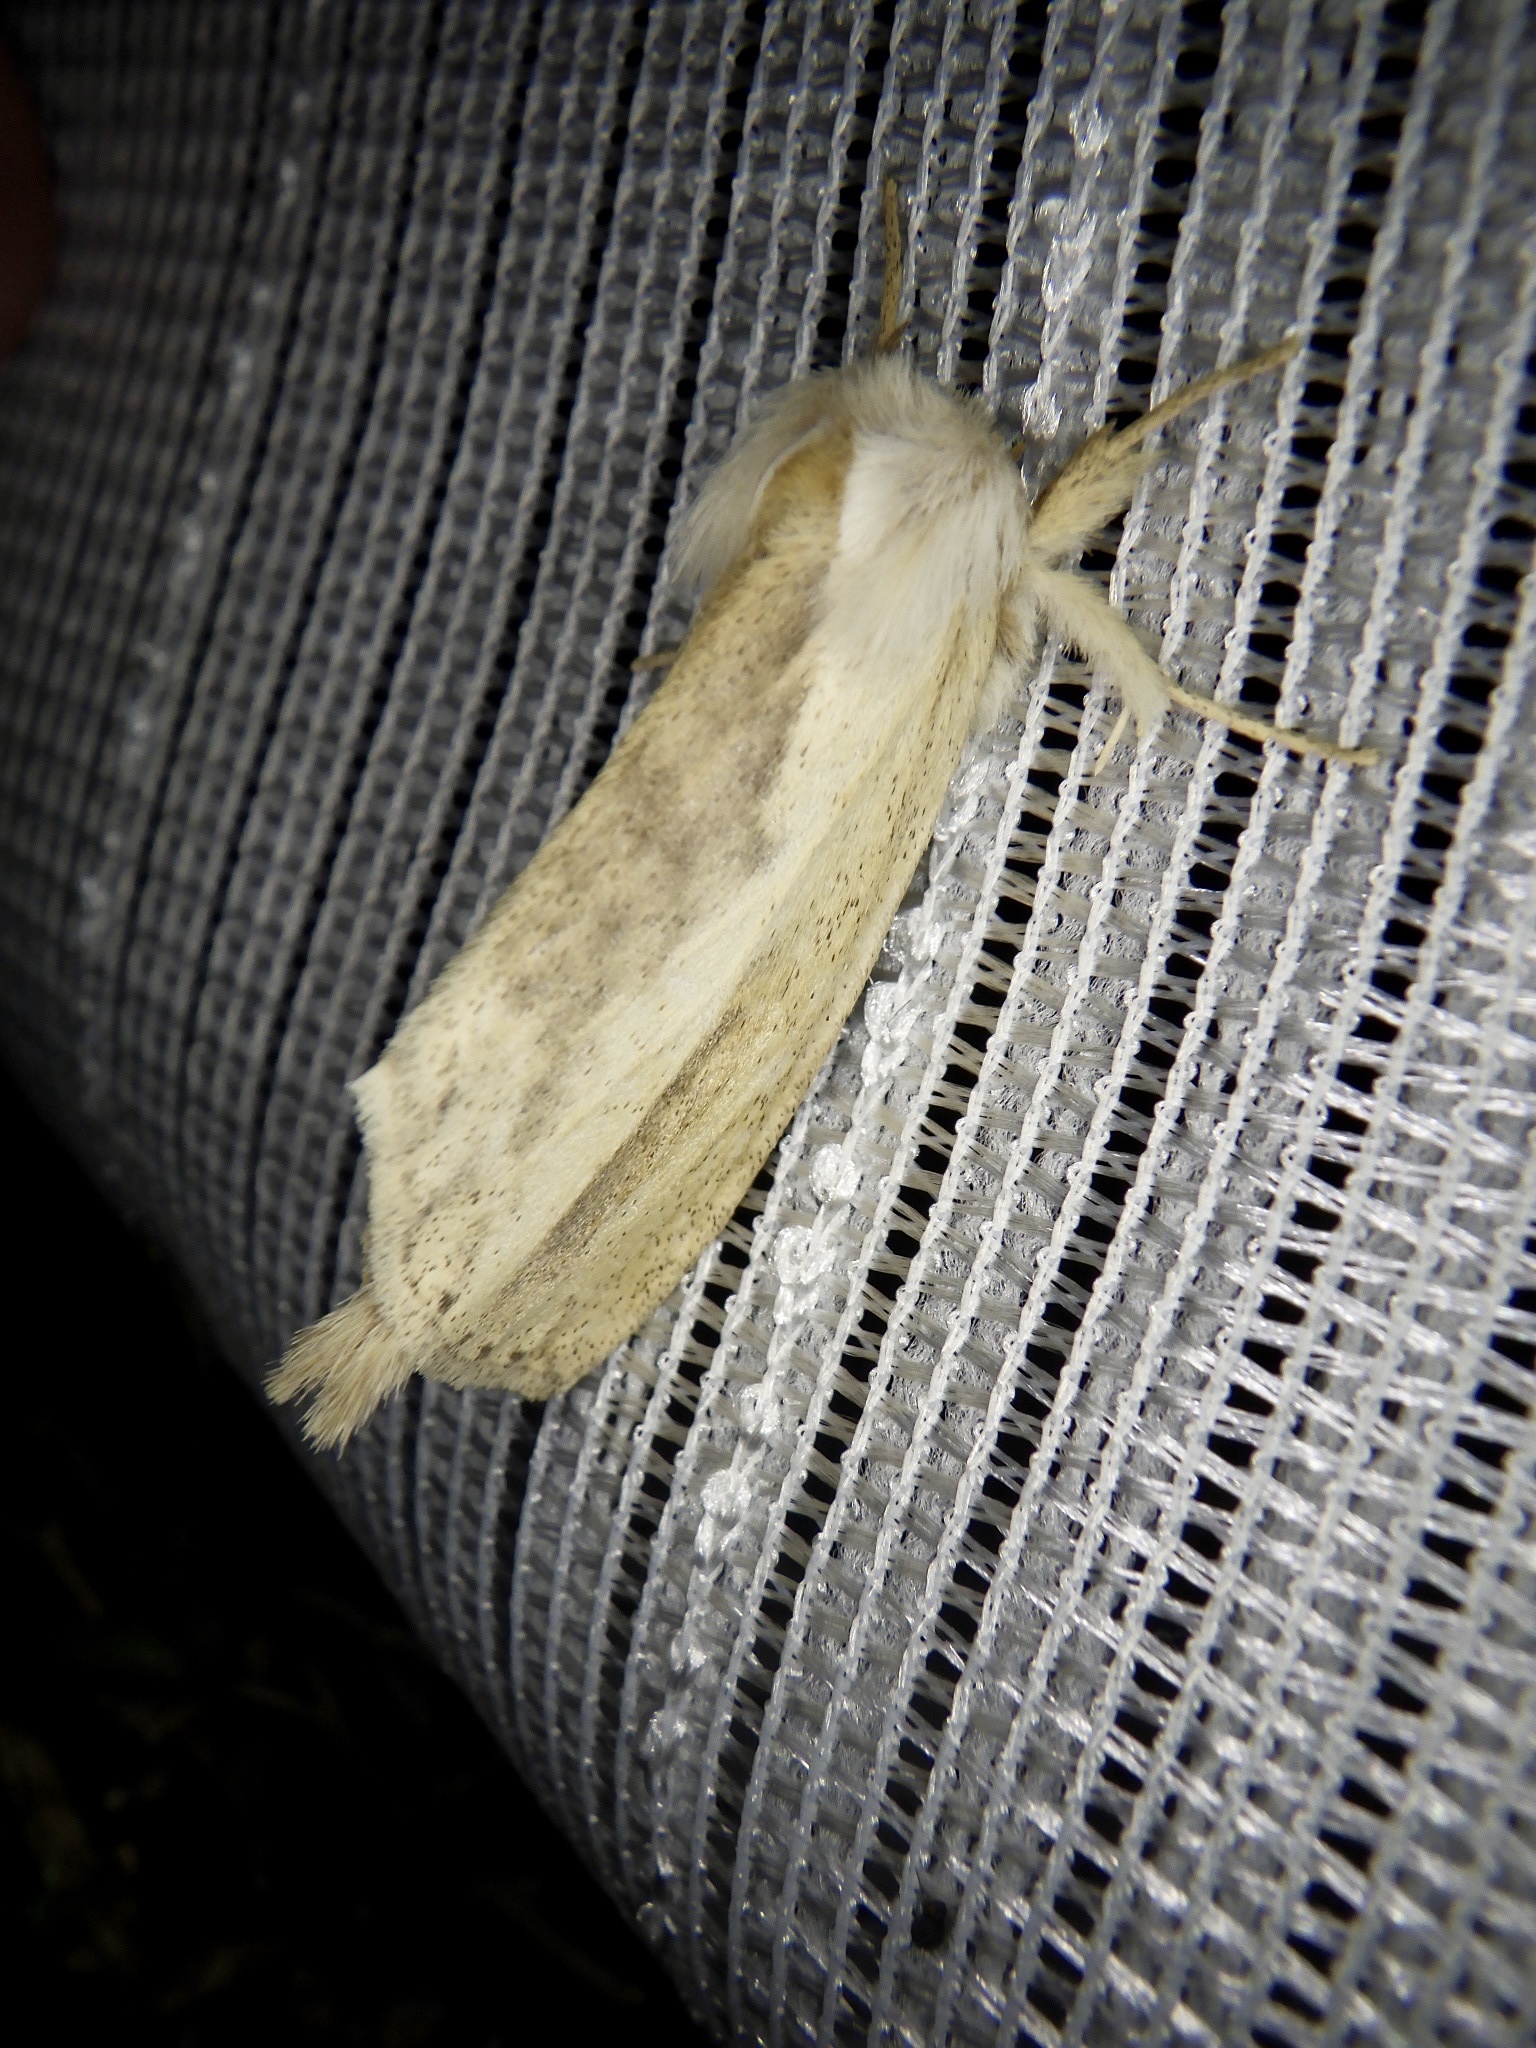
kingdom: Animalia
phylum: Arthropoda
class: Insecta
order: Lepidoptera
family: Notodontidae
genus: Mimopydna
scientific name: Mimopydna pallida
